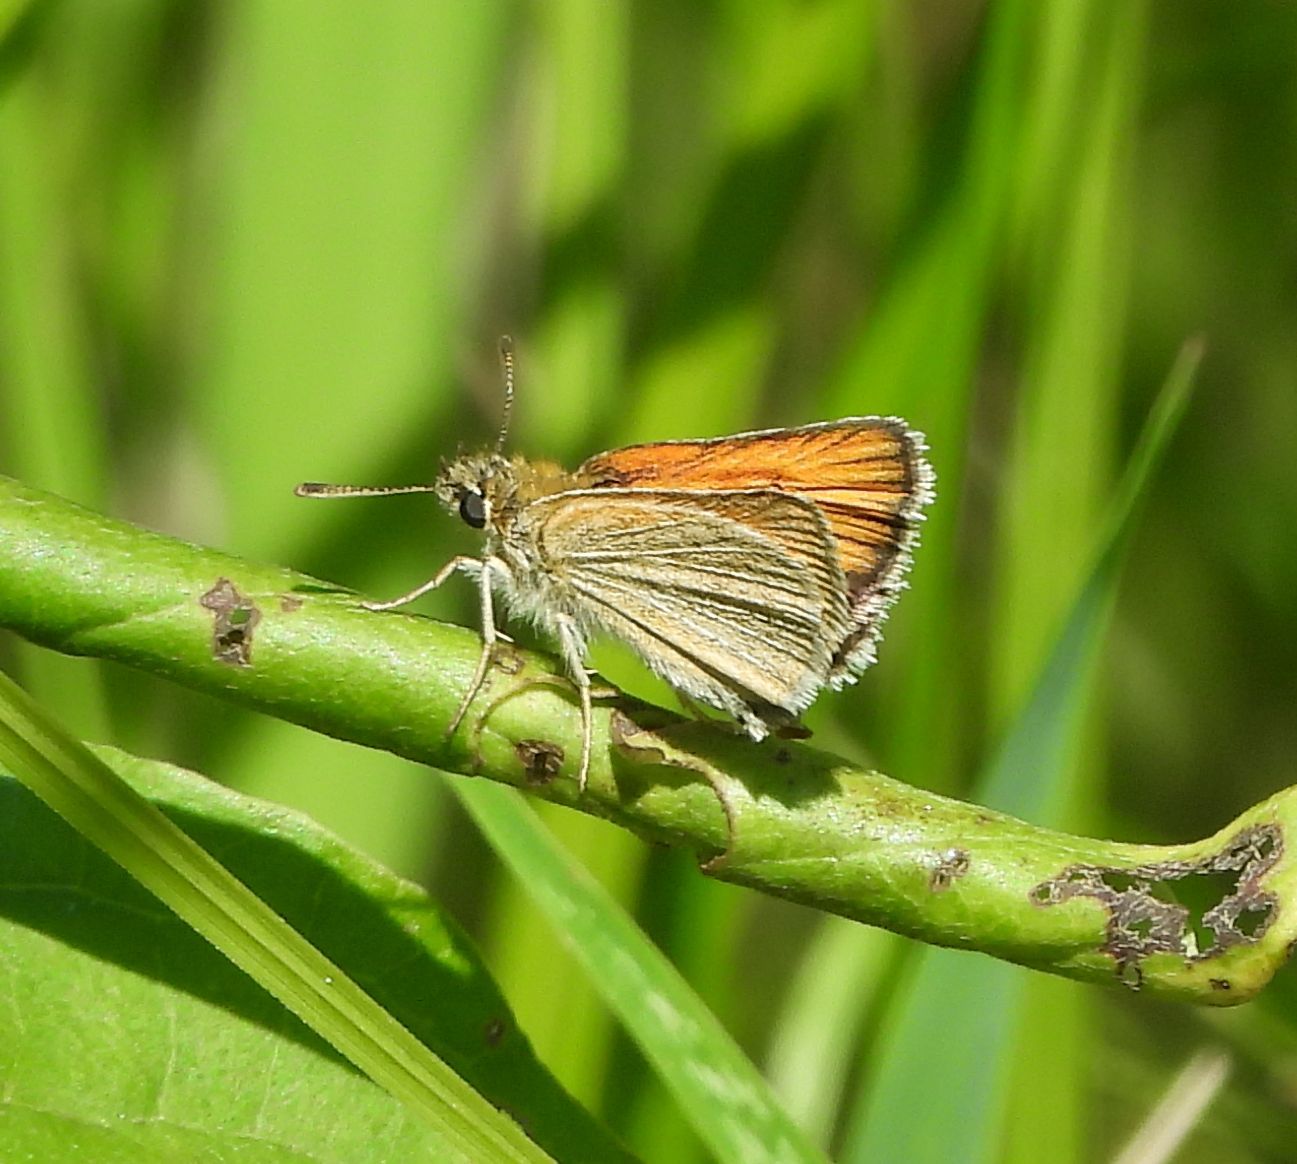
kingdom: Animalia
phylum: Arthropoda
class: Insecta
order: Lepidoptera
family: Hesperiidae
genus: Thymelicus
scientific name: Thymelicus lineola
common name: Essex skipper
